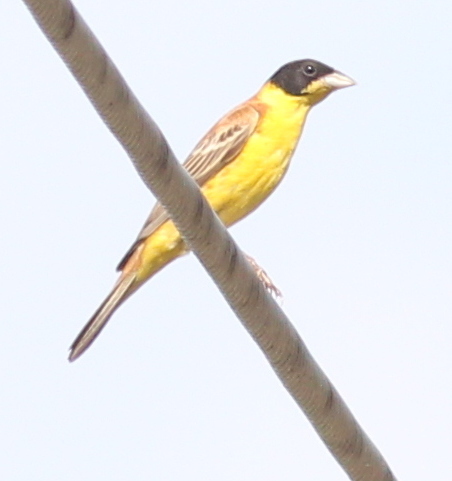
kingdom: Animalia
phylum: Chordata
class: Aves
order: Passeriformes
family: Emberizidae
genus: Emberiza
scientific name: Emberiza melanocephala
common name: Black-headed bunting
